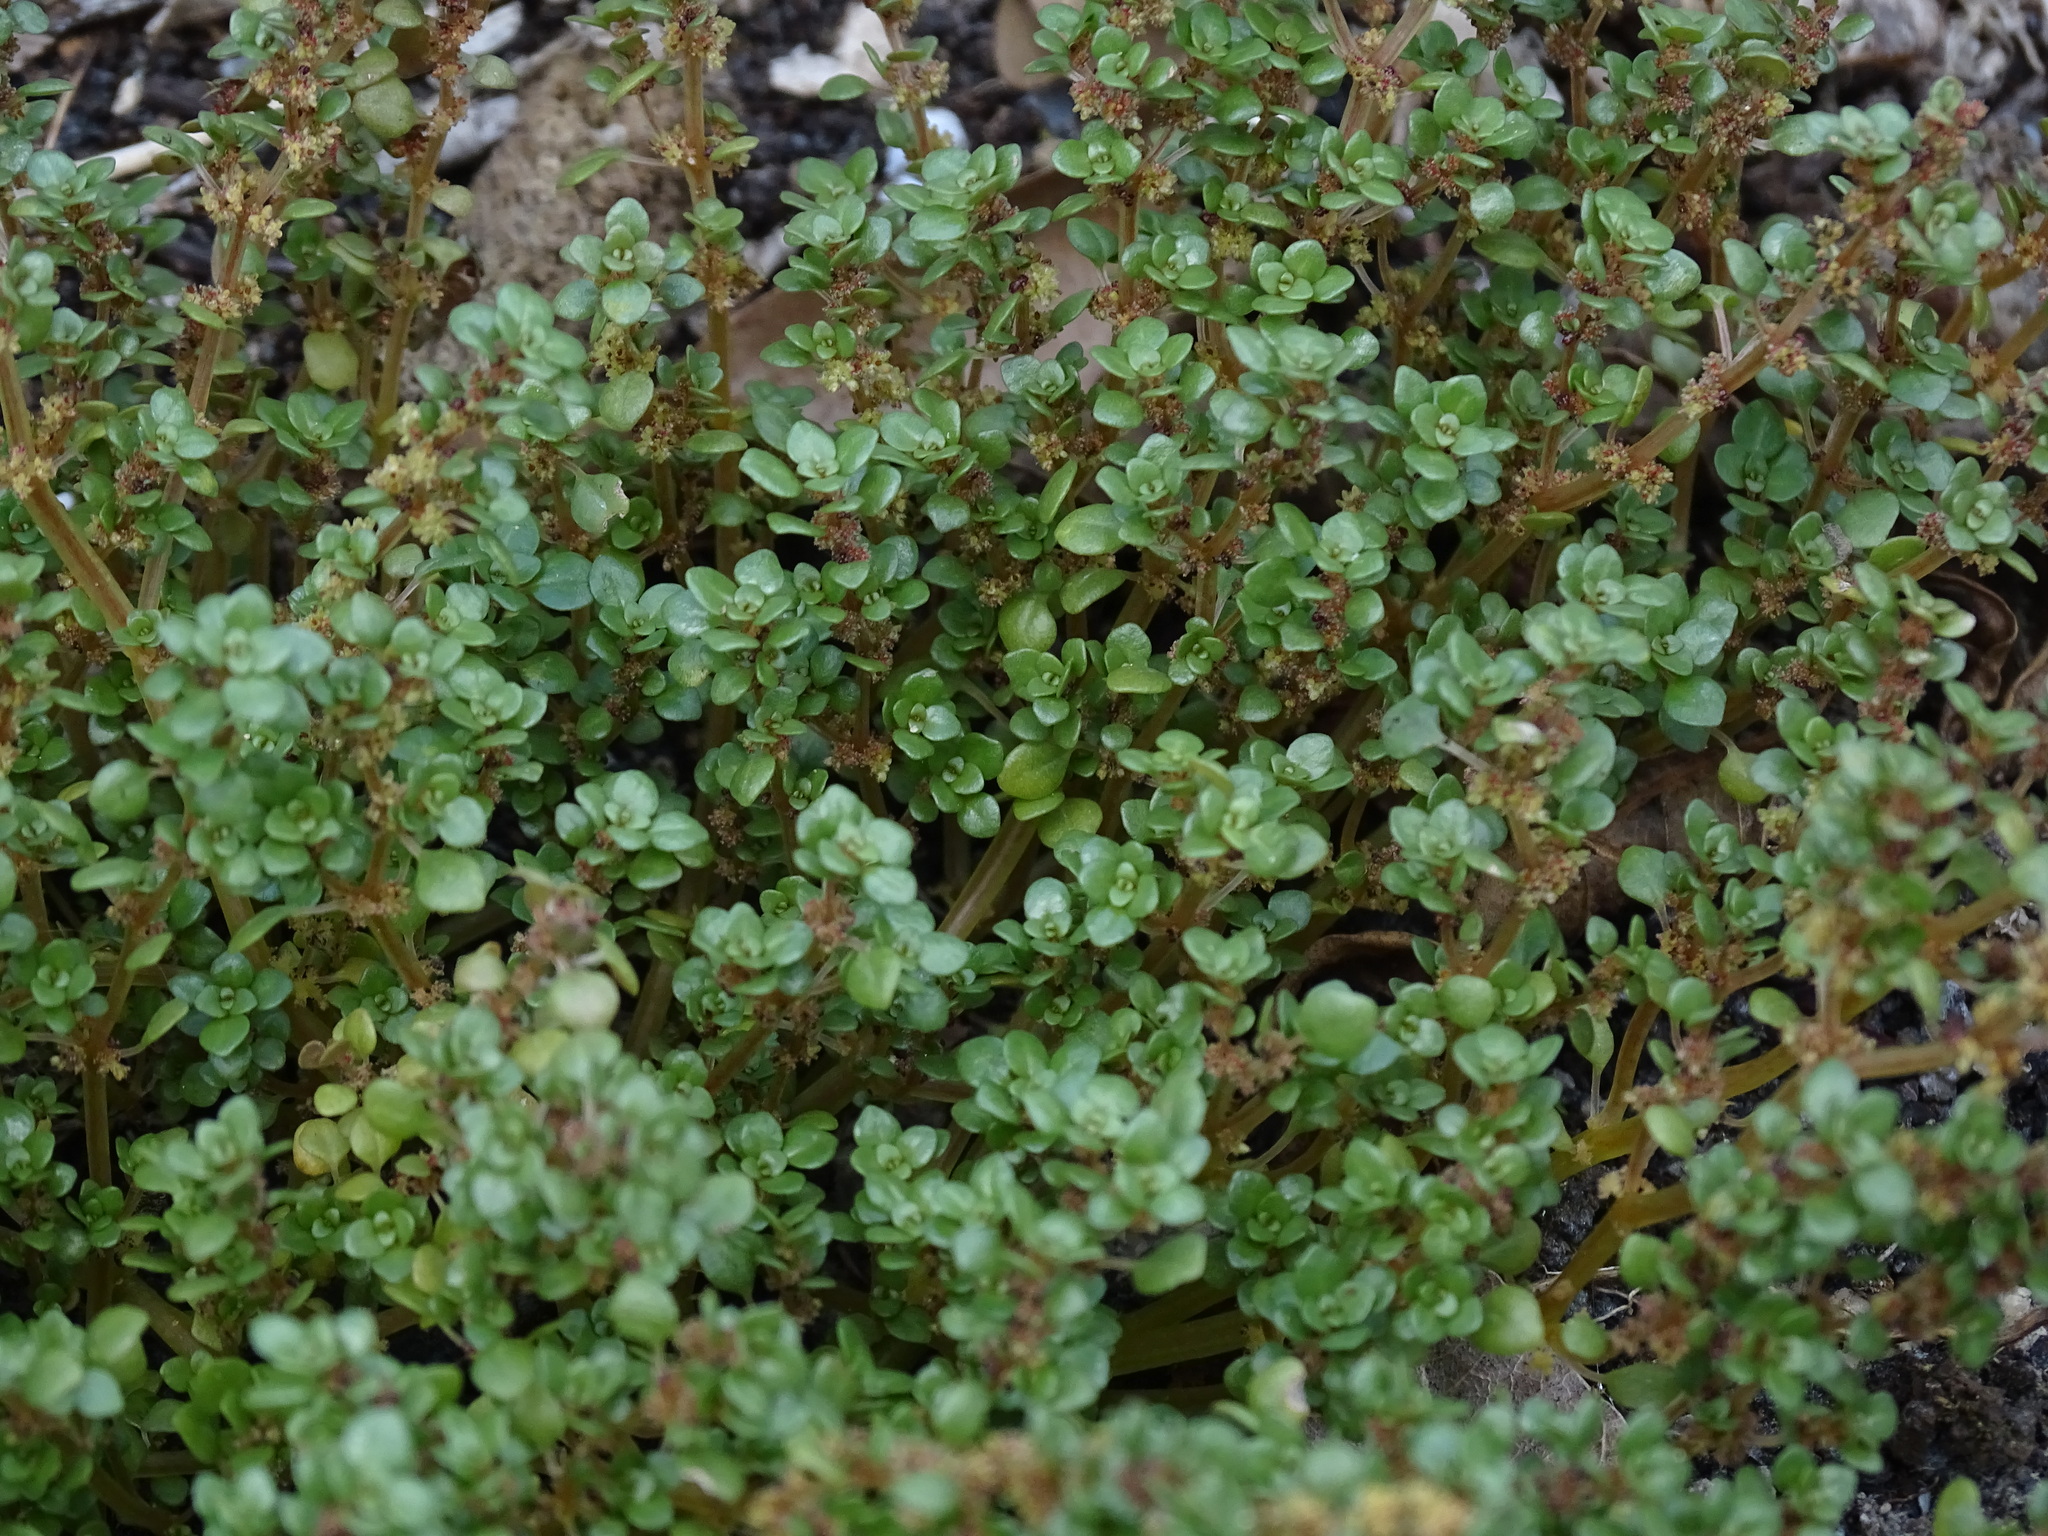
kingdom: Plantae
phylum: Tracheophyta
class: Magnoliopsida
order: Rosales
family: Urticaceae
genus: Pilea
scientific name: Pilea microphylla
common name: Artillery-plant
